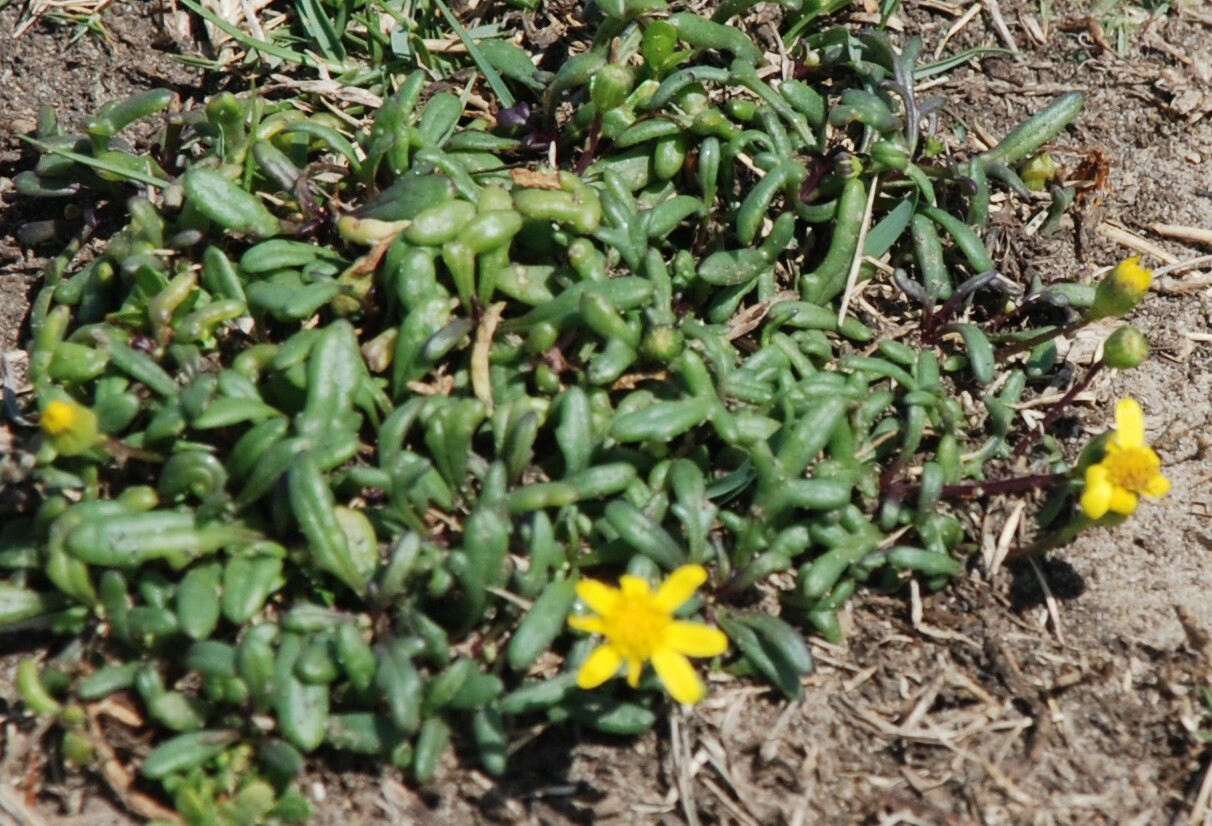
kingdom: Plantae
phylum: Tracheophyta
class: Magnoliopsida
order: Asterales
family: Asteraceae
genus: Senecio
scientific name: Senecio pinnatifolius
